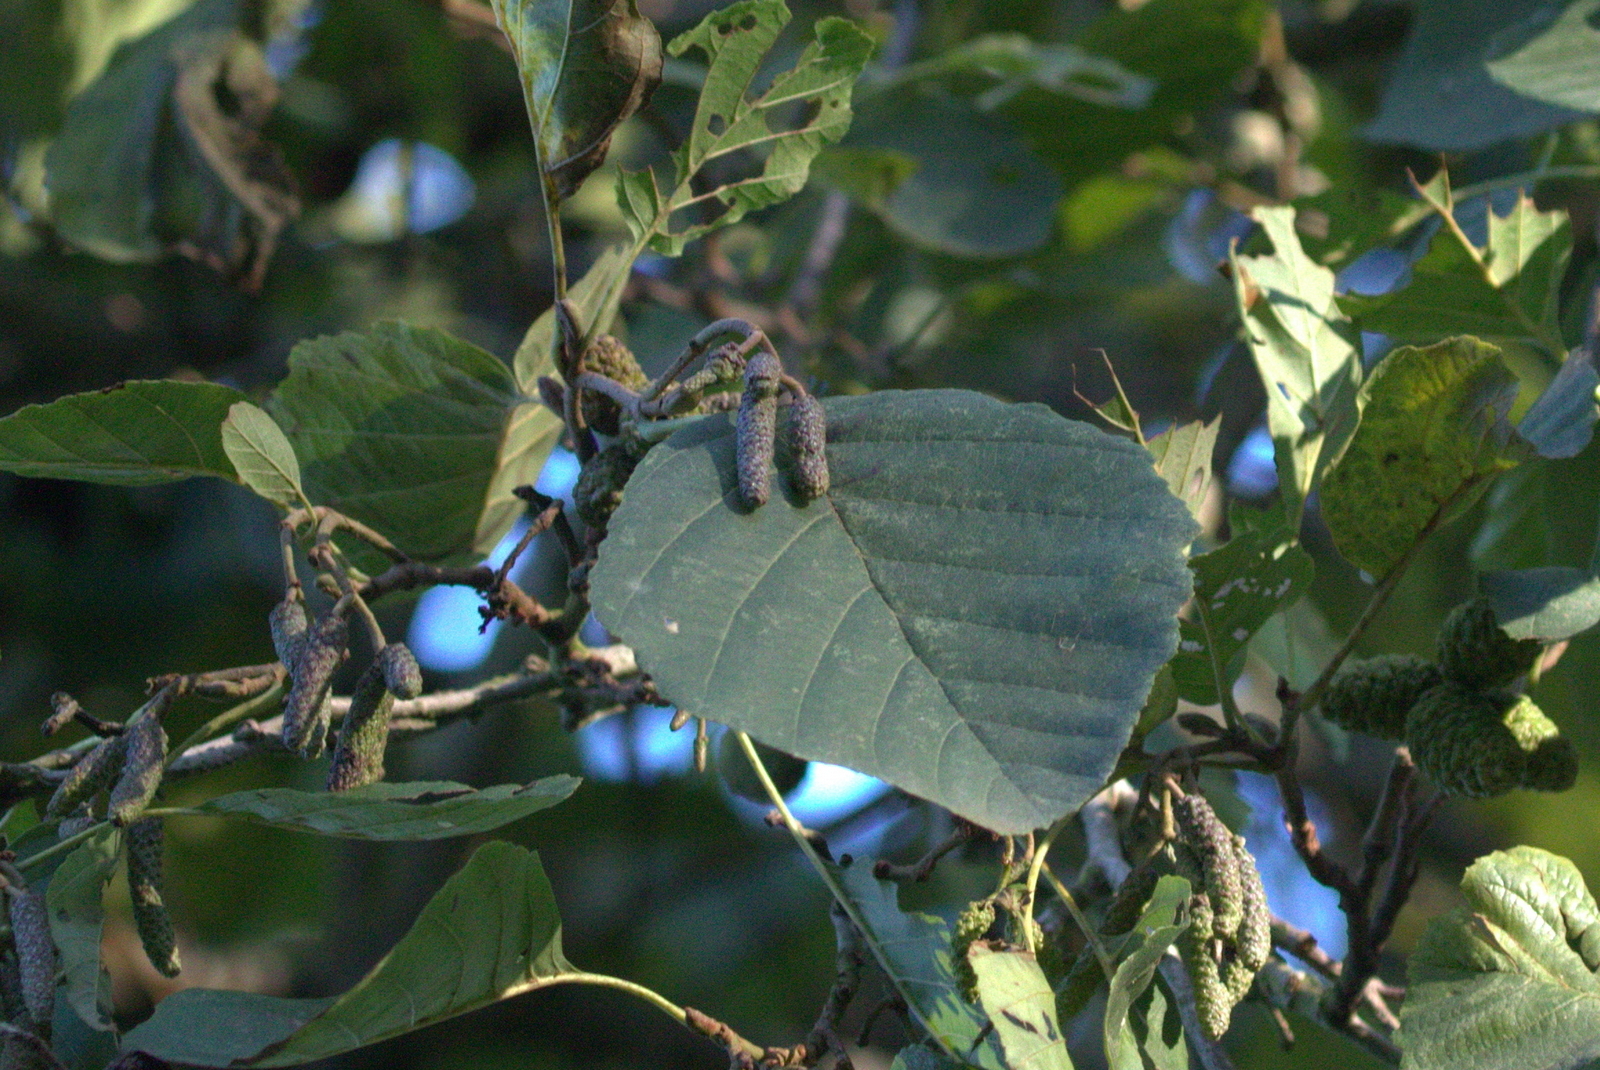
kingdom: Plantae
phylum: Tracheophyta
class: Magnoliopsida
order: Fagales
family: Betulaceae
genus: Alnus
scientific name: Alnus glutinosa
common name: Black alder
